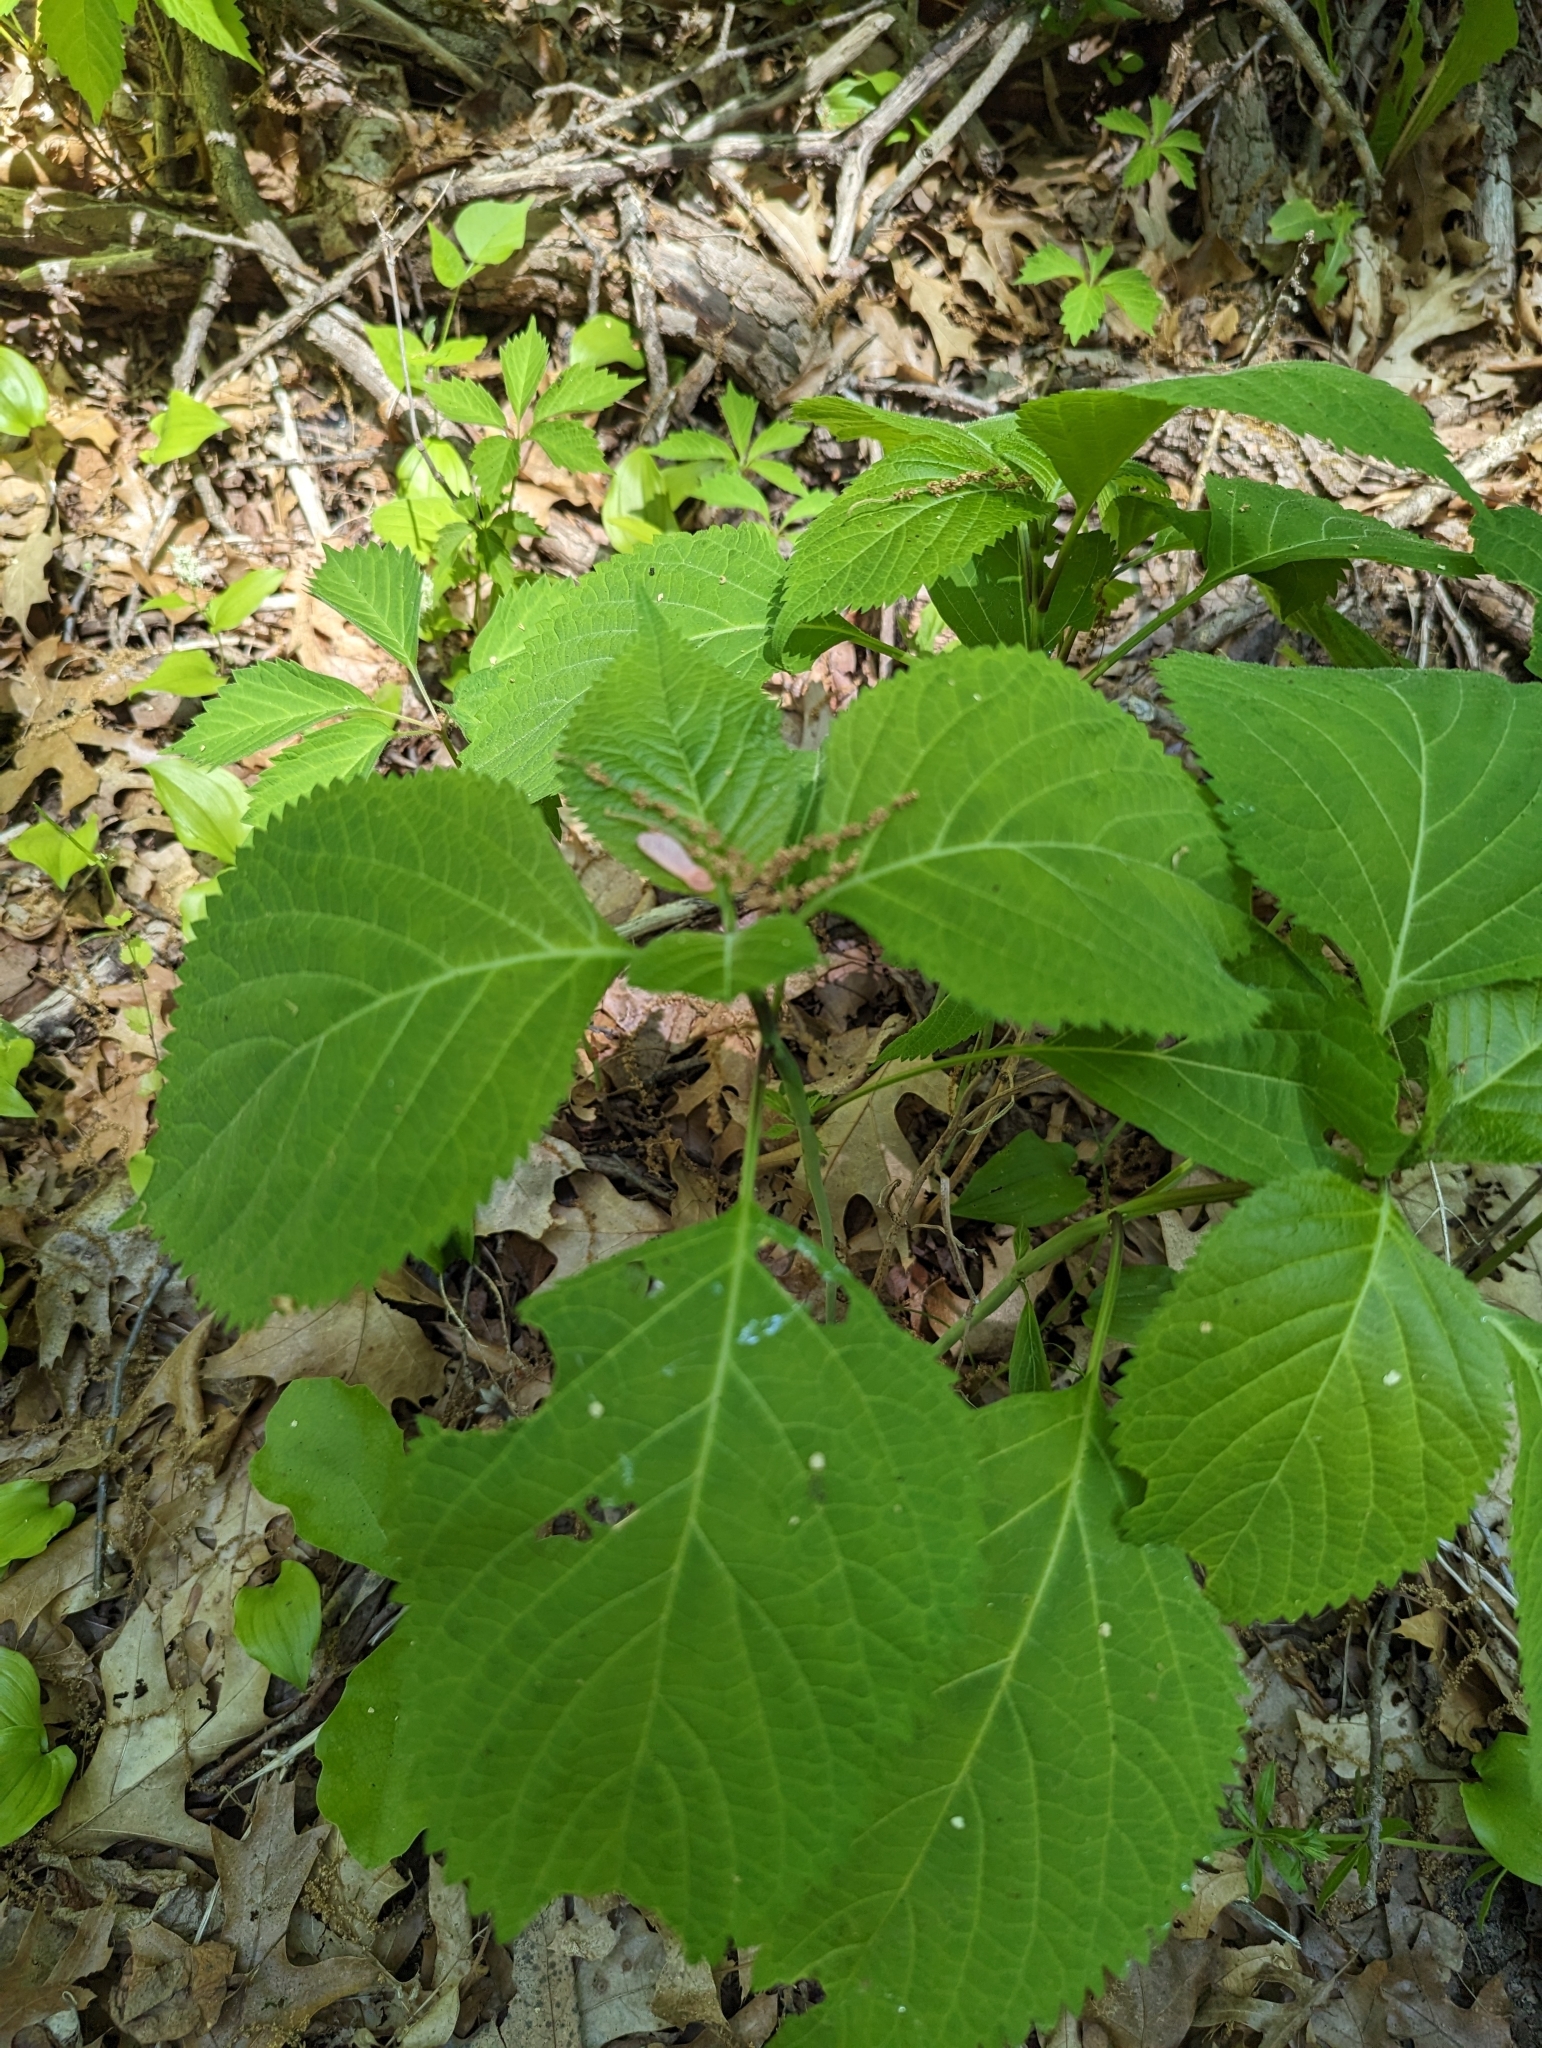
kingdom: Plantae
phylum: Tracheophyta
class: Magnoliopsida
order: Lamiales
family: Lamiaceae
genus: Collinsonia
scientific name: Collinsonia canadensis
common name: Northern horsebalm
